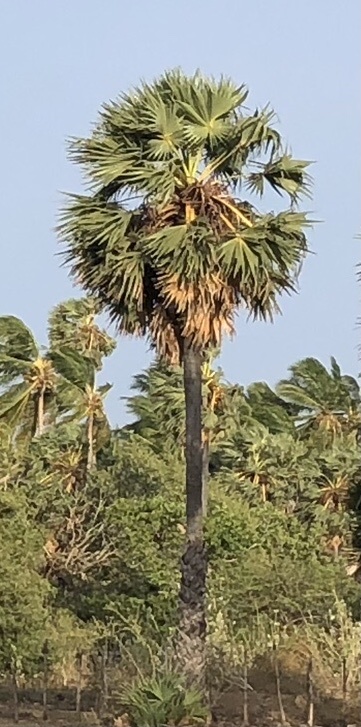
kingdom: Plantae
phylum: Tracheophyta
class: Liliopsida
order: Arecales
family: Arecaceae
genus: Borassus
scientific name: Borassus flabellifer
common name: Palmyra palm
